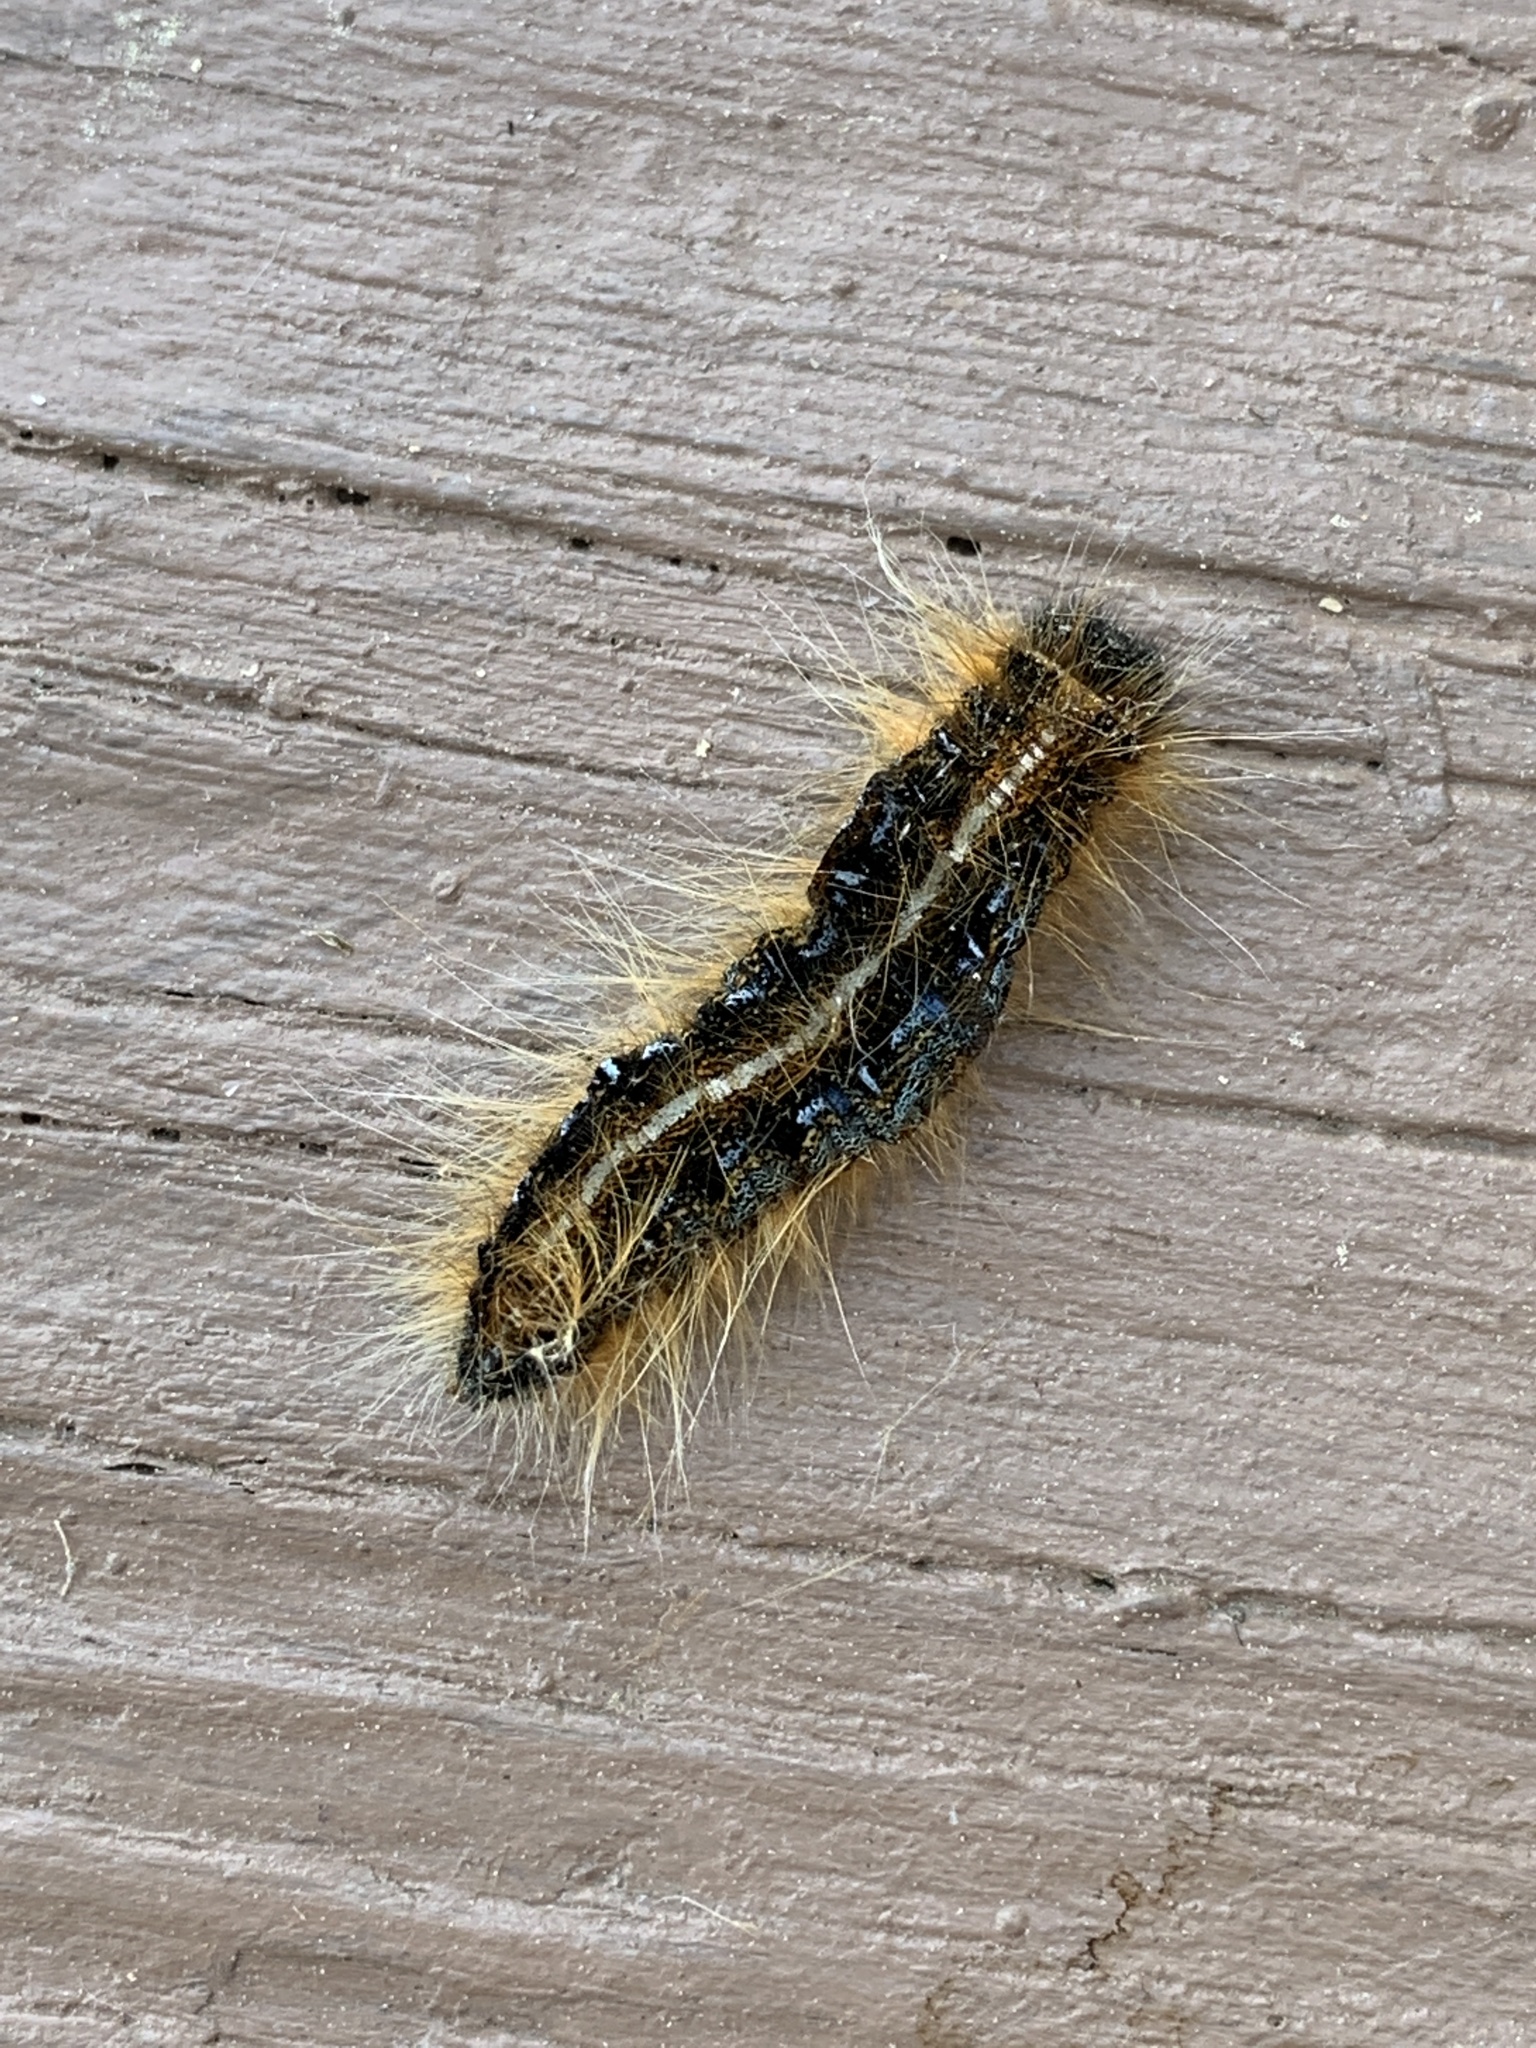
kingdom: Animalia
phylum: Arthropoda
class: Insecta
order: Lepidoptera
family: Lasiocampidae
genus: Malacosoma
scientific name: Malacosoma americana
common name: Eastern tent caterpillar moth
